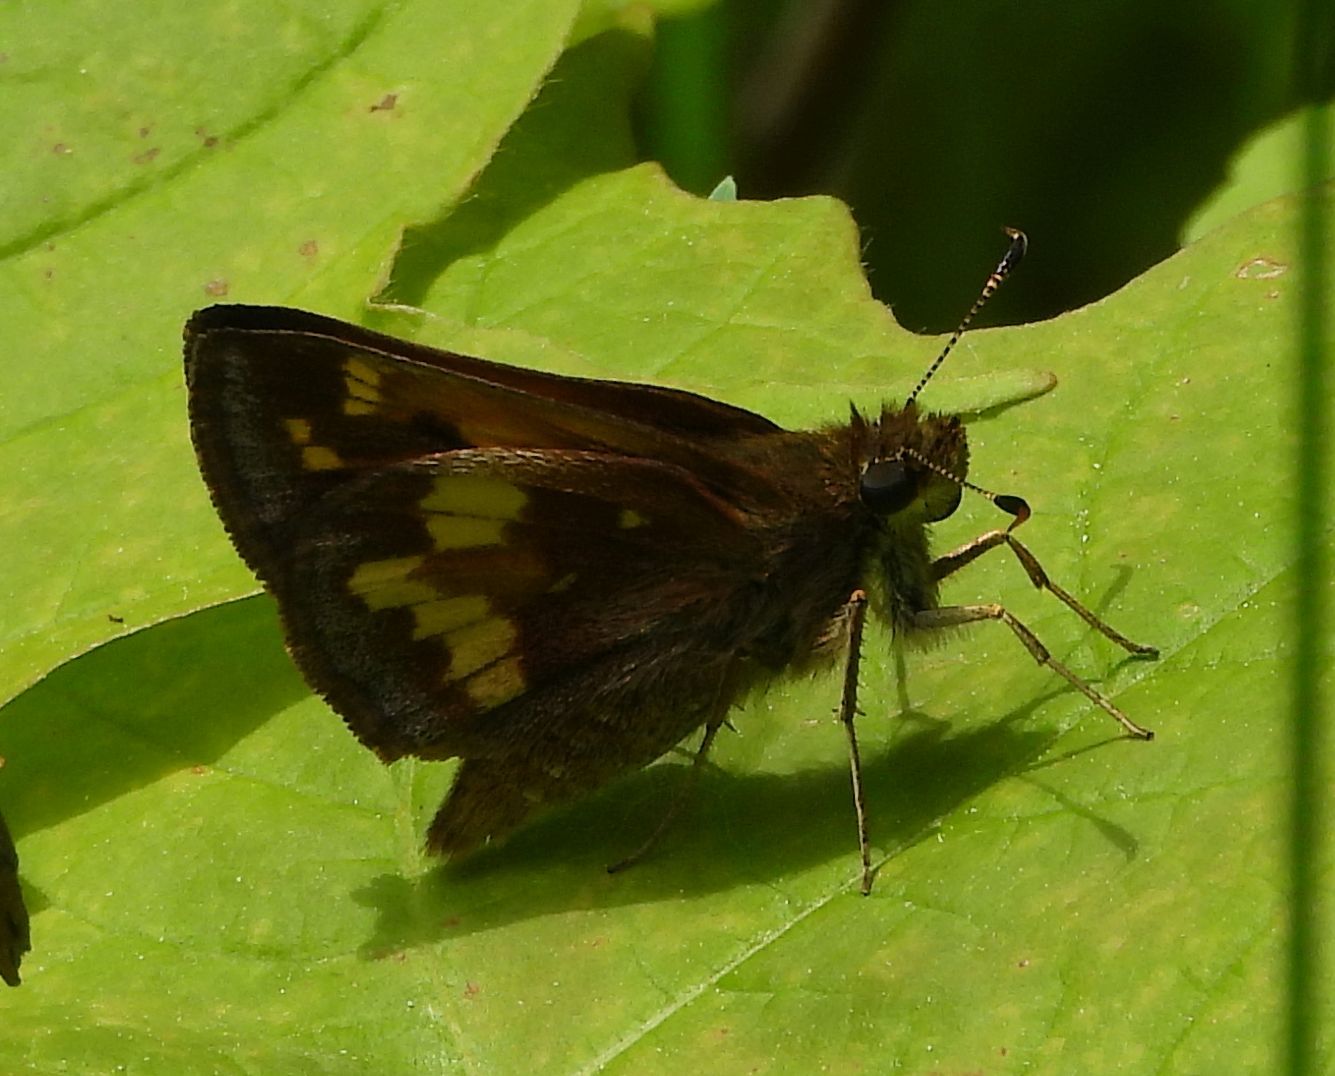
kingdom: Animalia
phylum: Arthropoda
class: Insecta
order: Lepidoptera
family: Hesperiidae
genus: Lon
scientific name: Lon hobomok
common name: Hobomok skipper
